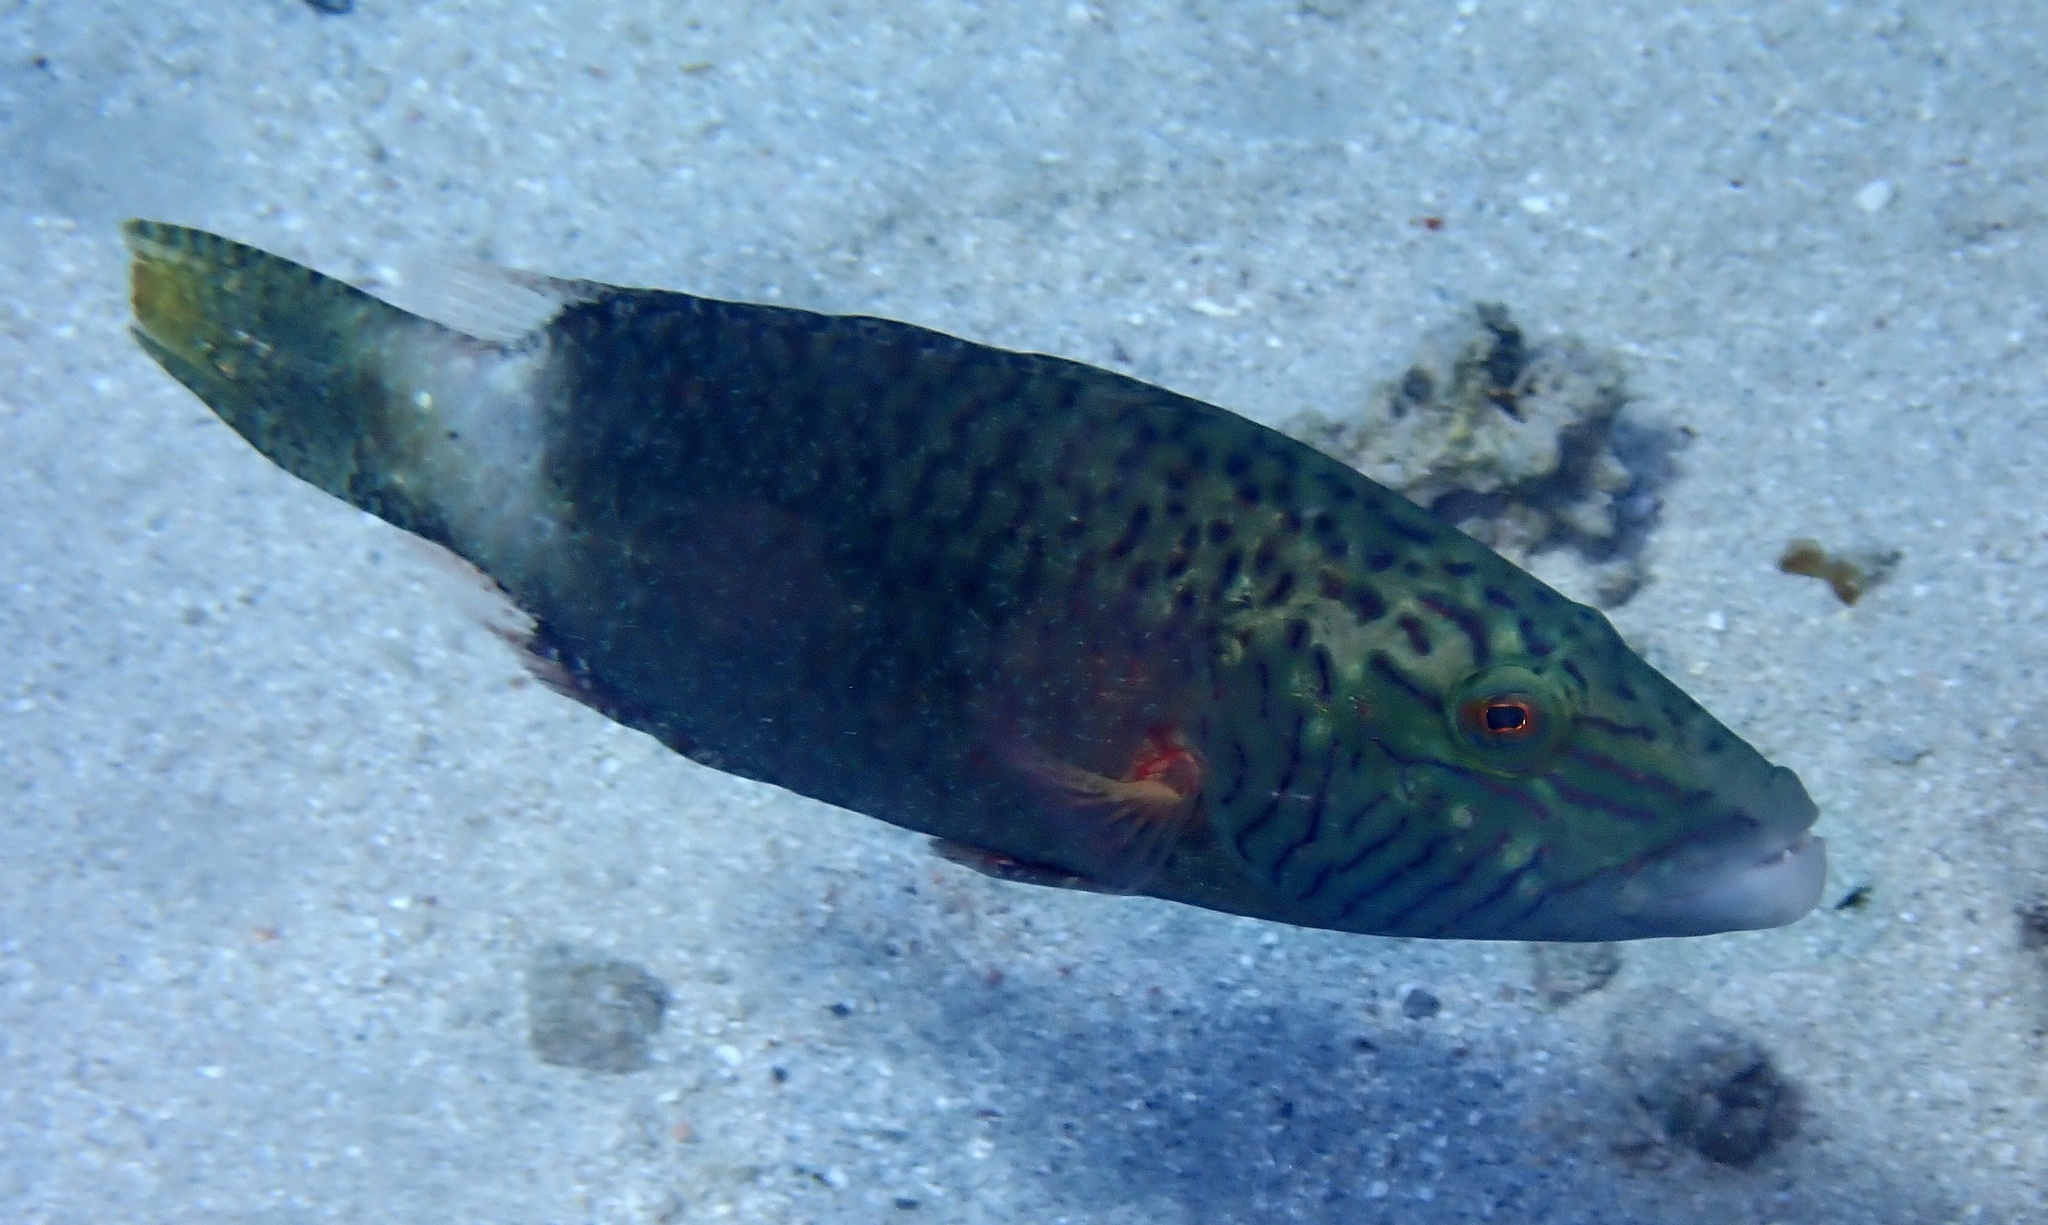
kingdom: Animalia
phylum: Chordata
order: Perciformes
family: Labridae
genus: Oxycheilinus
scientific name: Oxycheilinus digramma
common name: Bandcheek wrasse
